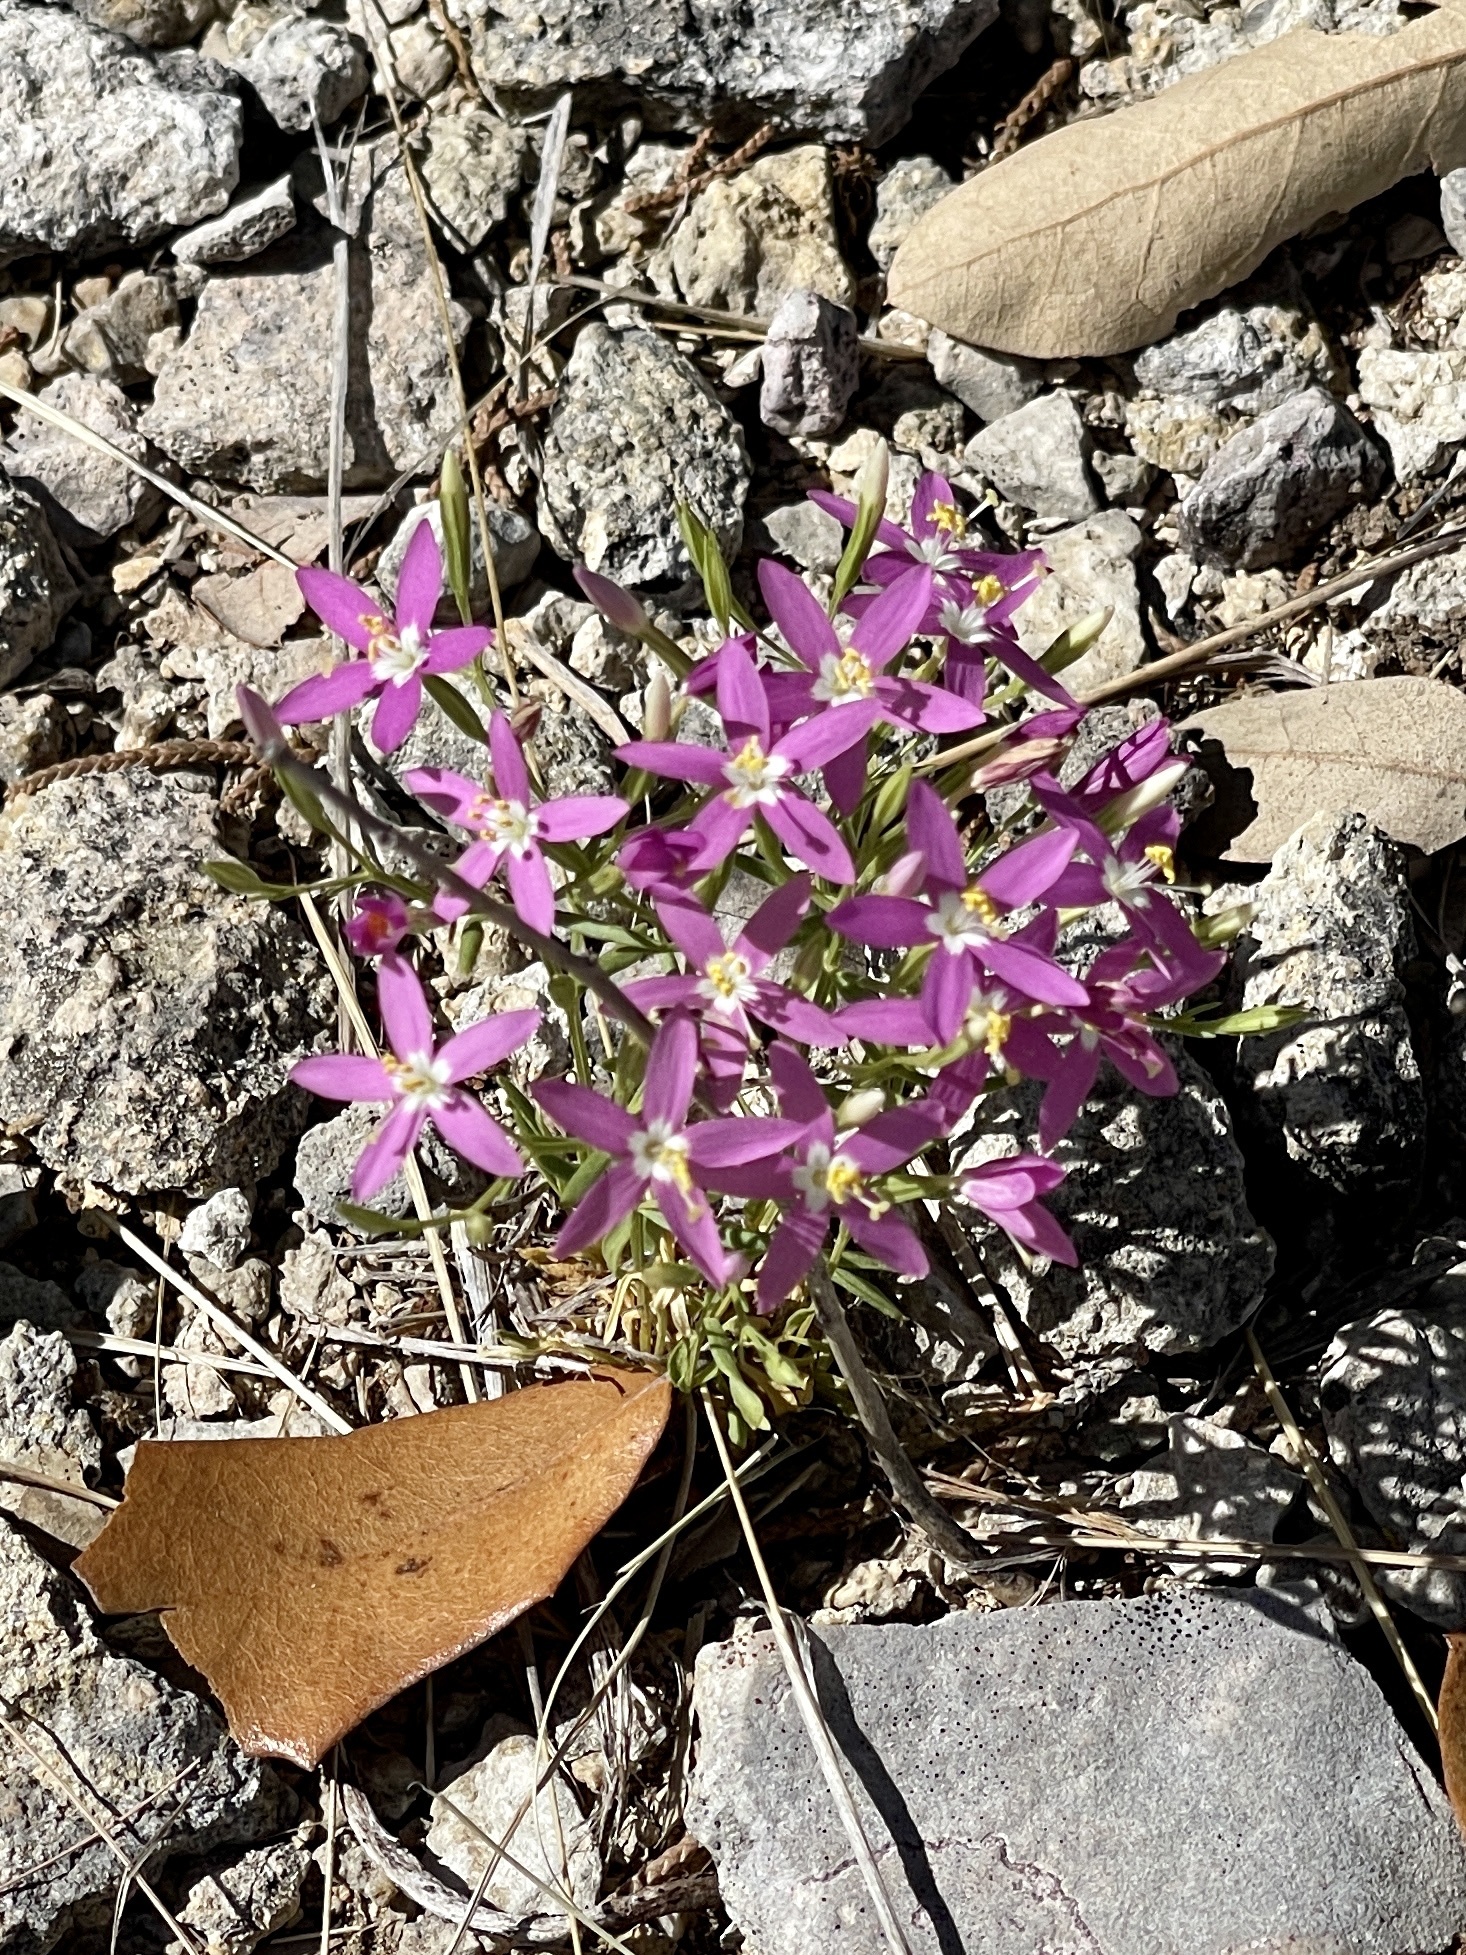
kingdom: Plantae
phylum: Tracheophyta
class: Magnoliopsida
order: Gentianales
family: Gentianaceae
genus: Zeltnera
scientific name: Zeltnera calycosa
